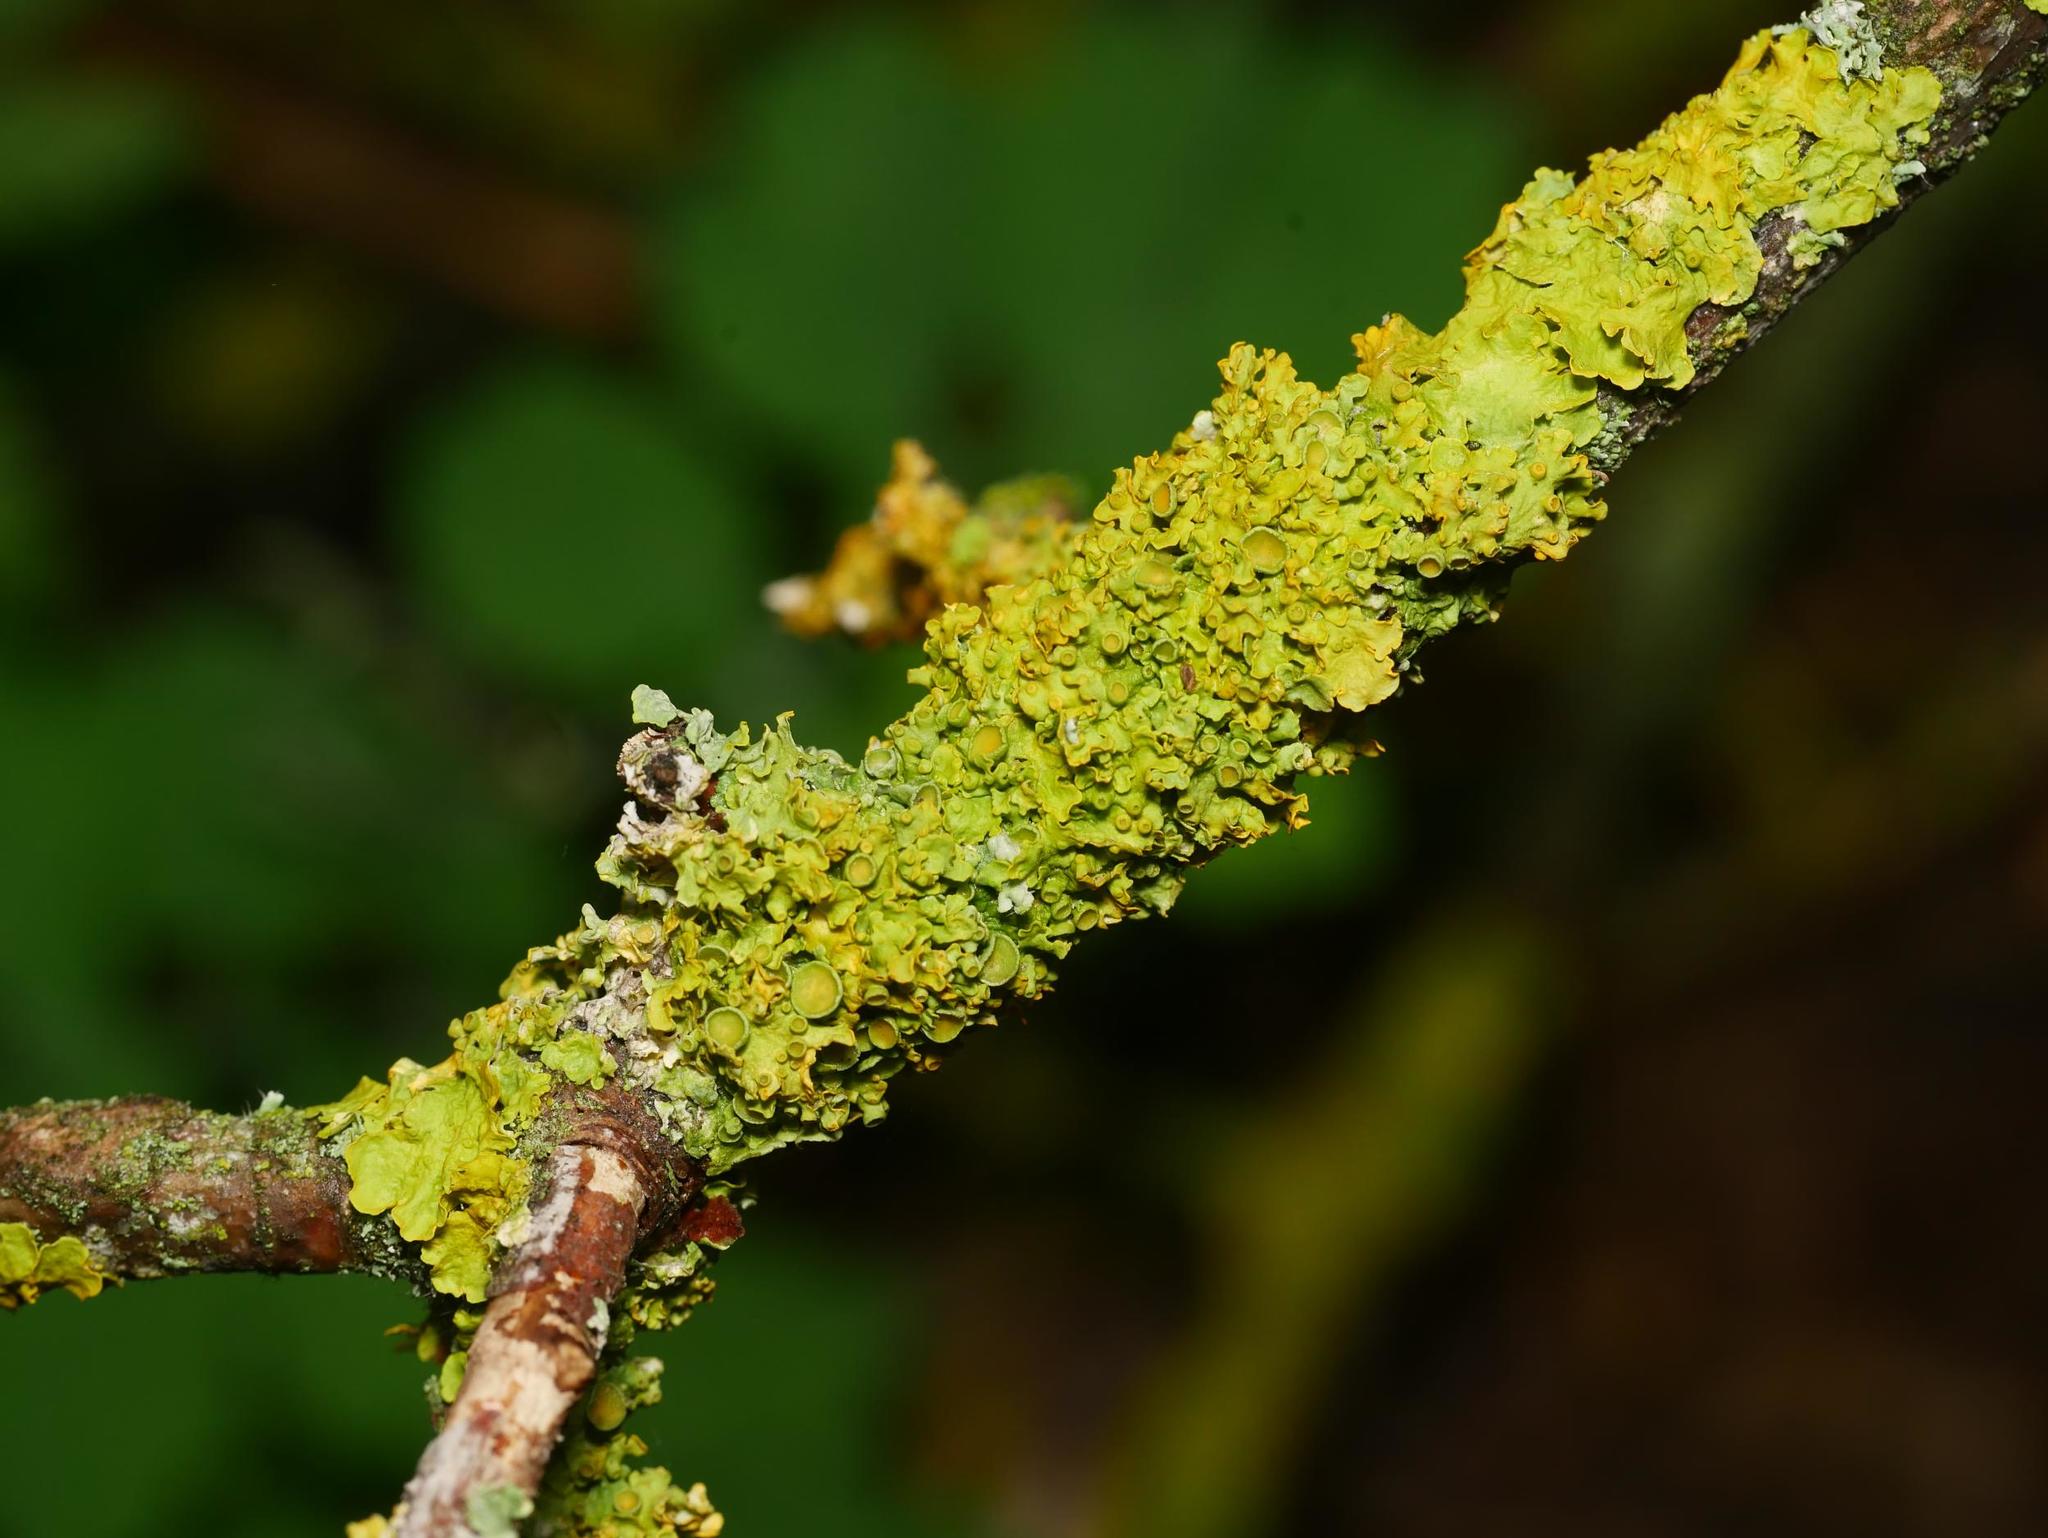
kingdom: Fungi
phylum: Ascomycota
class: Lecanoromycetes
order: Teloschistales
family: Teloschistaceae
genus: Xanthoria
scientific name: Xanthoria parietina
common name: Common orange lichen
